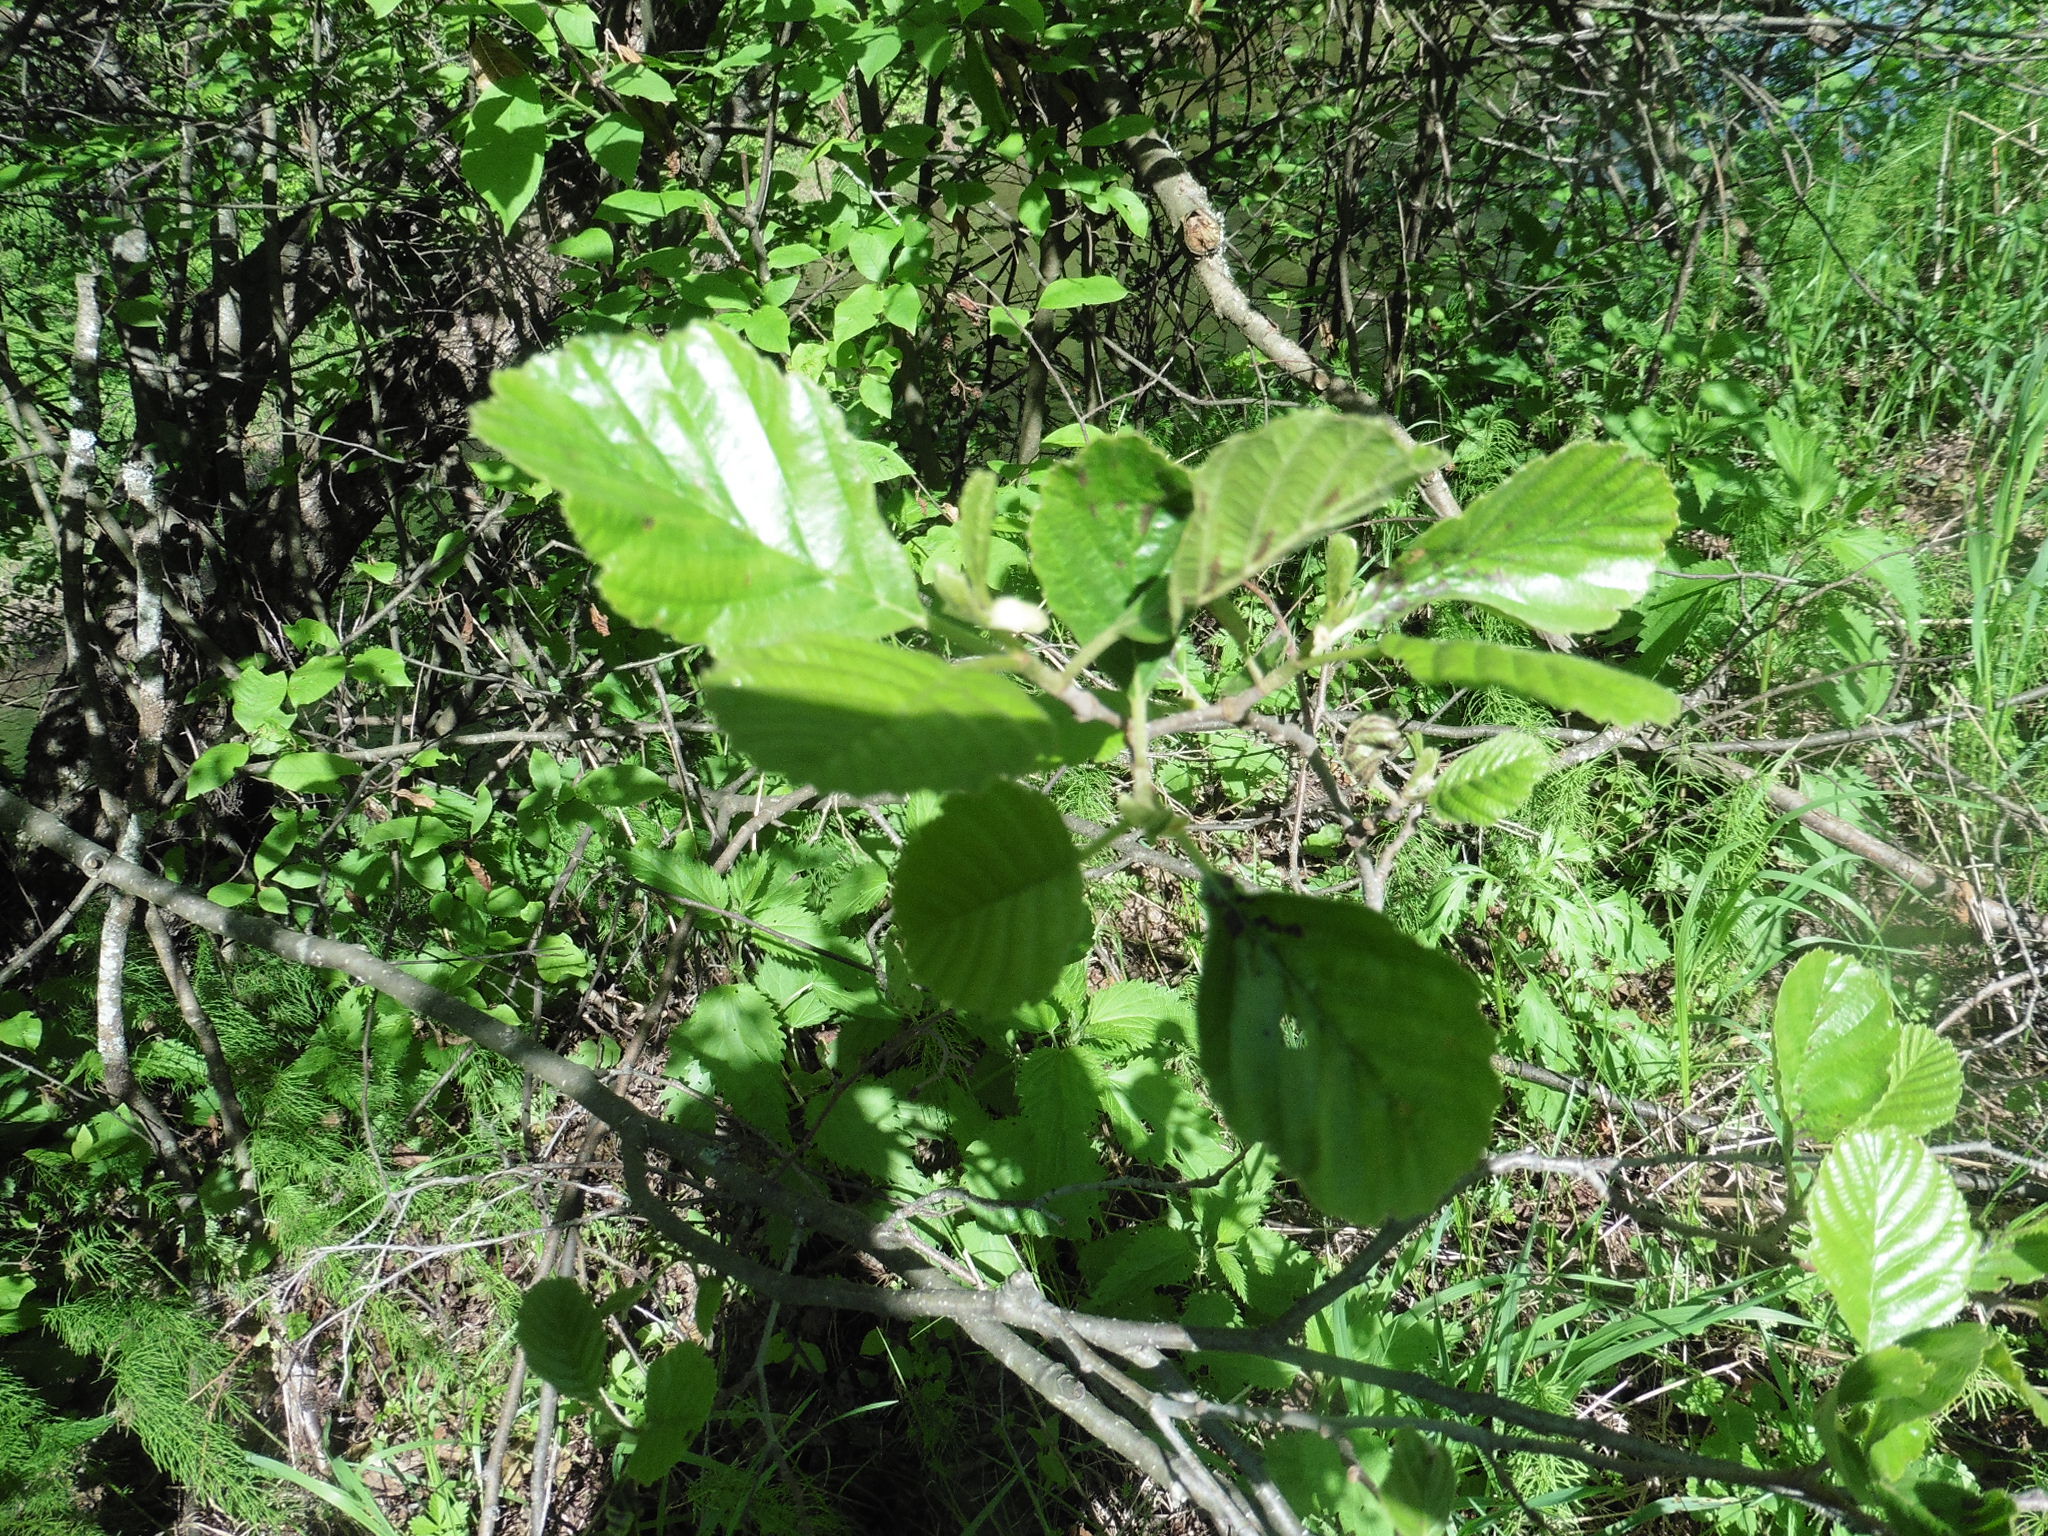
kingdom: Plantae
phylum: Tracheophyta
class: Magnoliopsida
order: Fagales
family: Betulaceae
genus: Alnus
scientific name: Alnus glutinosa
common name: Black alder
